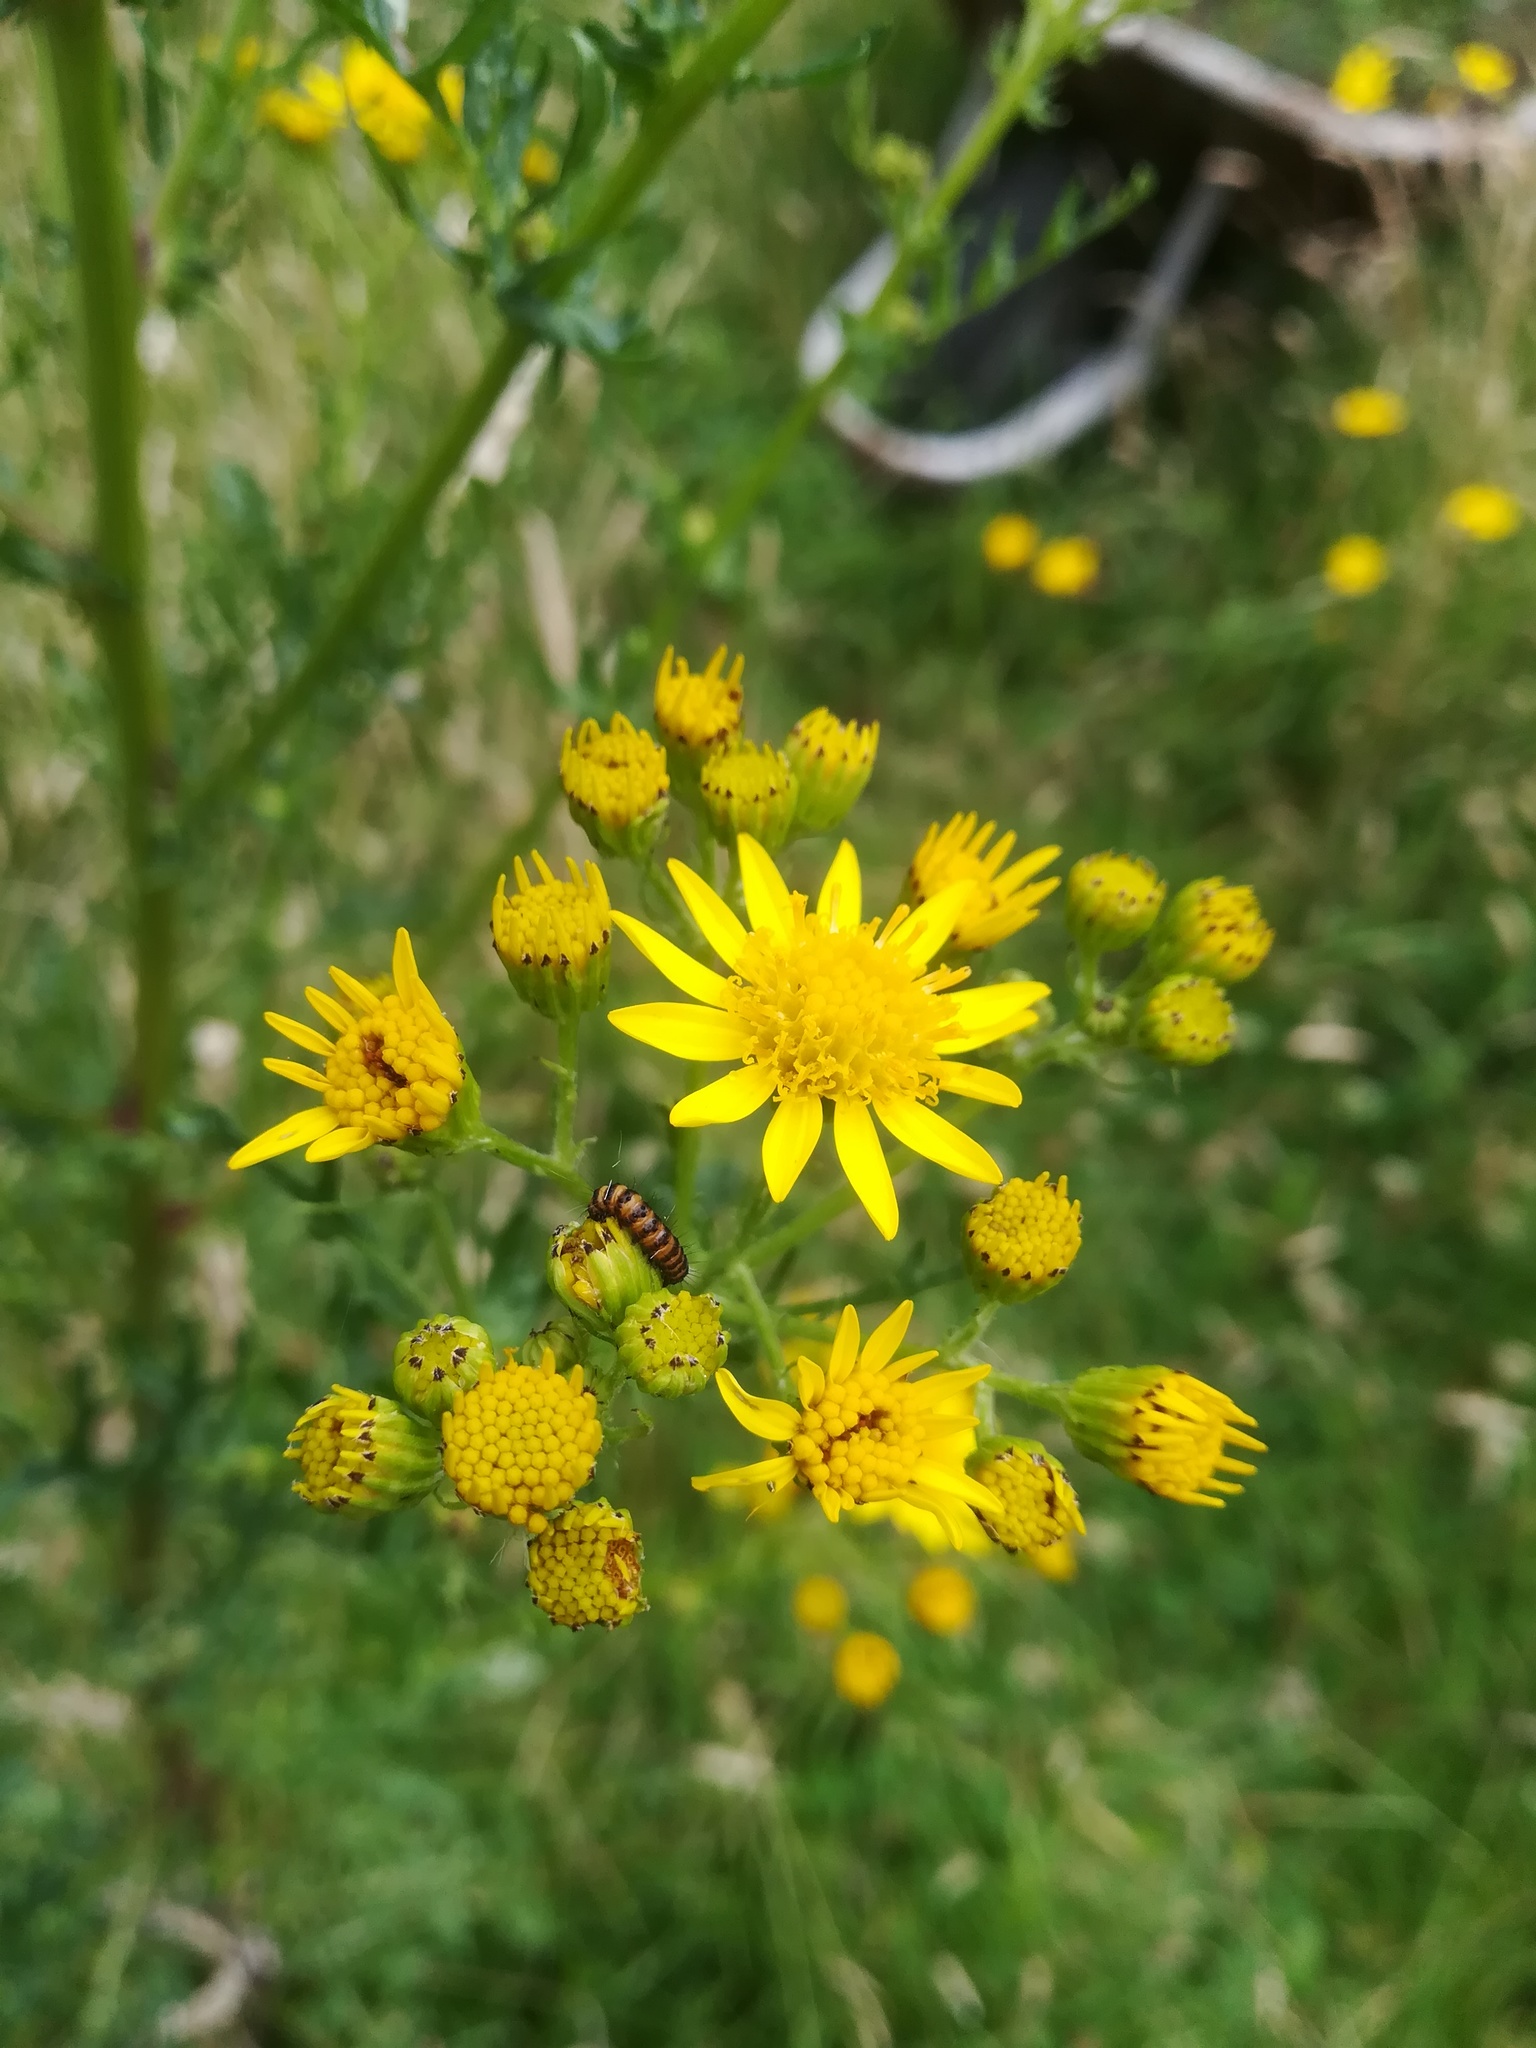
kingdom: Animalia
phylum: Arthropoda
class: Insecta
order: Lepidoptera
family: Erebidae
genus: Tyria
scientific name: Tyria jacobaeae
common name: Cinnabar
